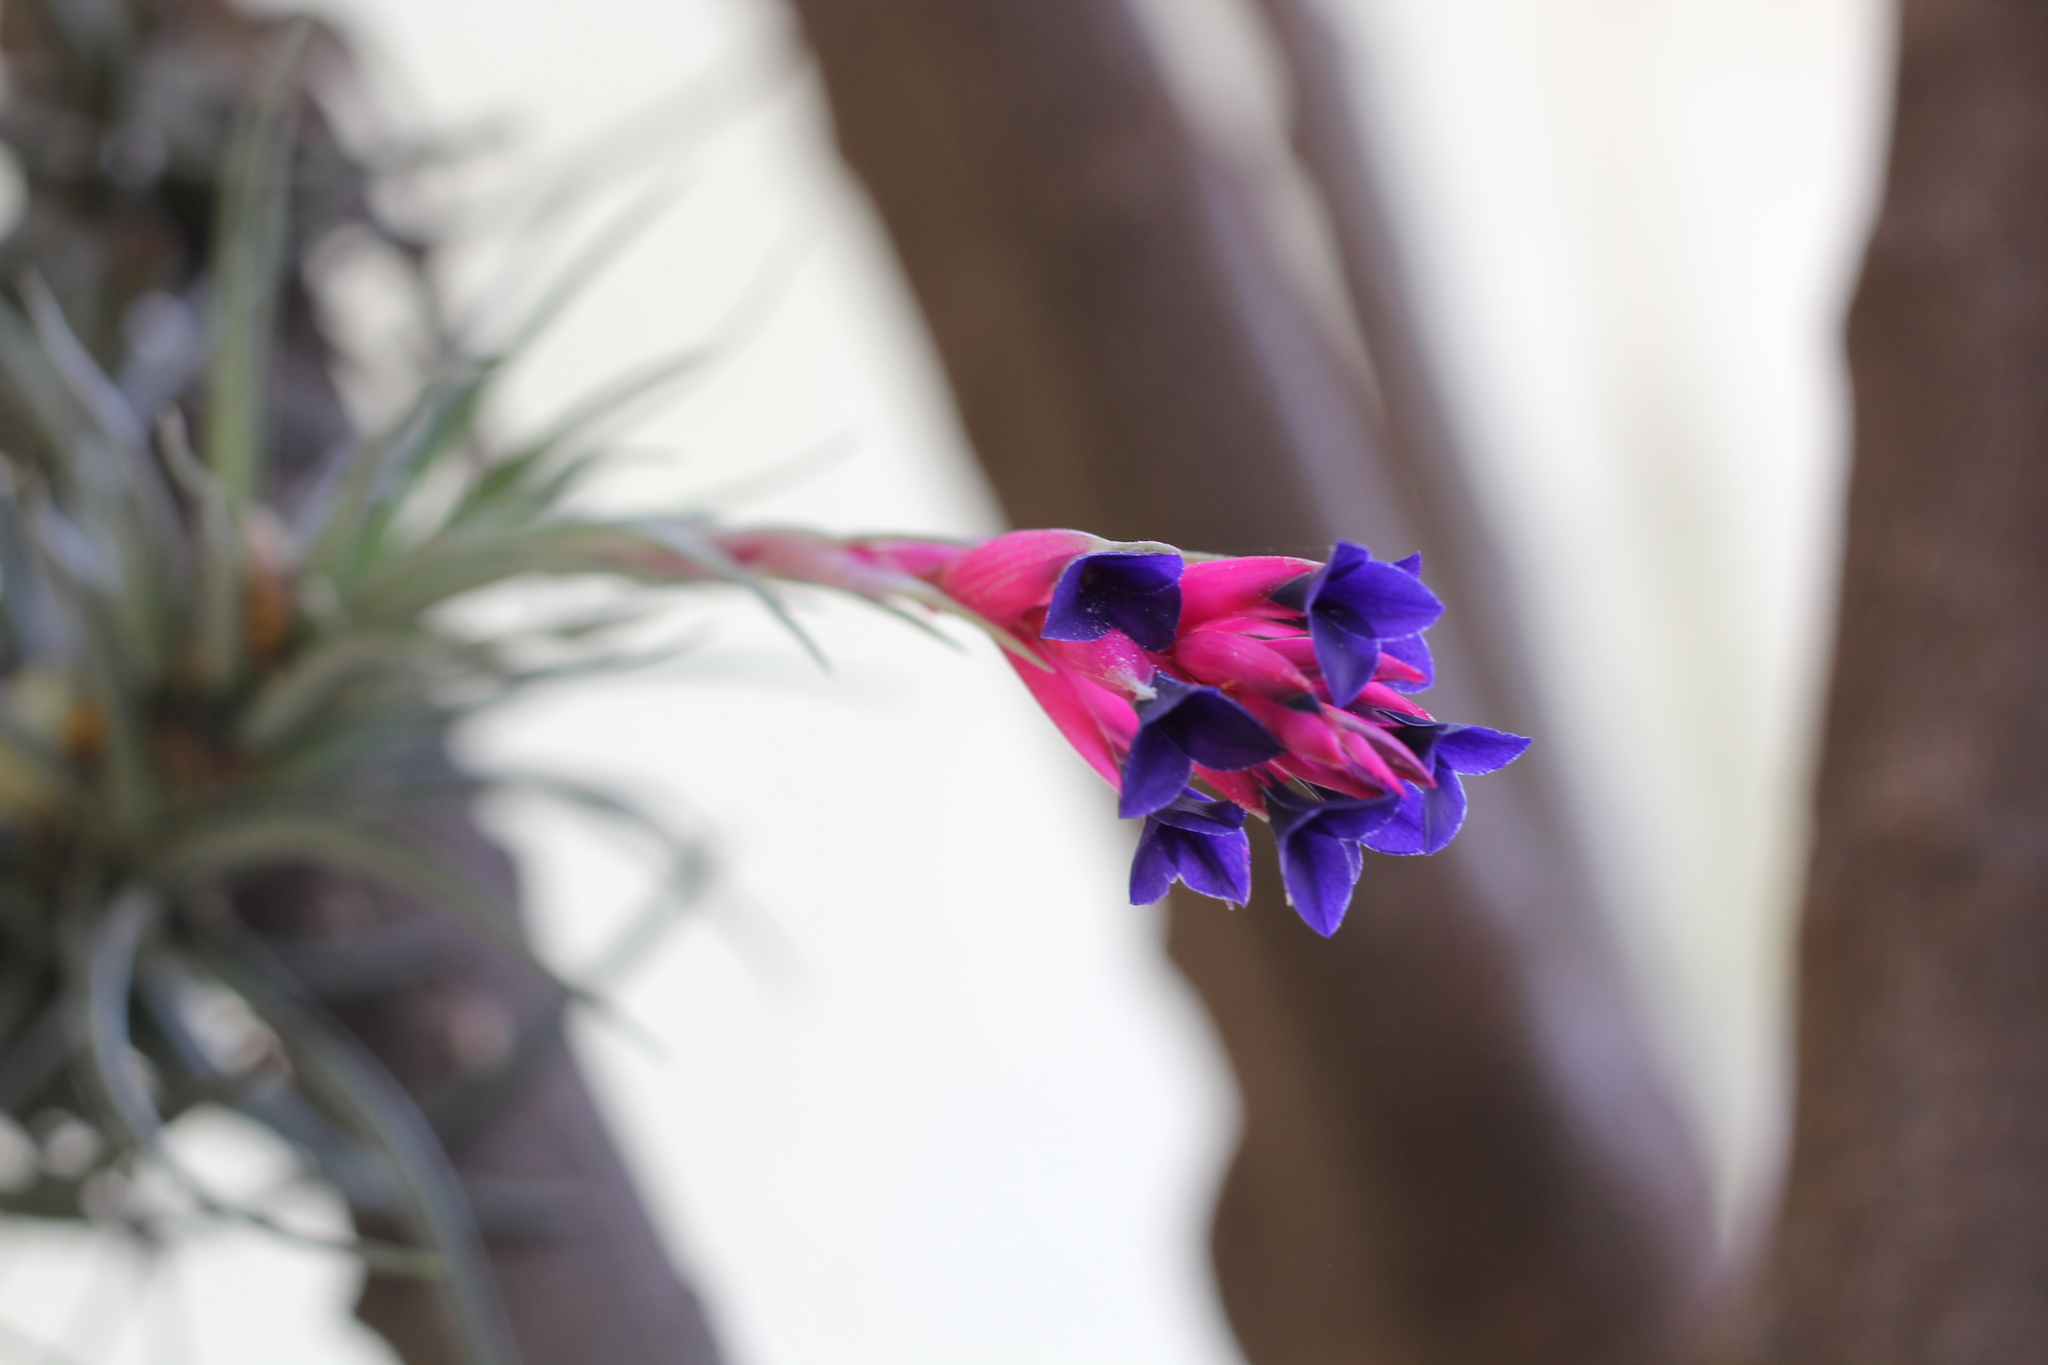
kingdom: Plantae
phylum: Tracheophyta
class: Liliopsida
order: Poales
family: Bromeliaceae
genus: Tillandsia
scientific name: Tillandsia aeranthos
